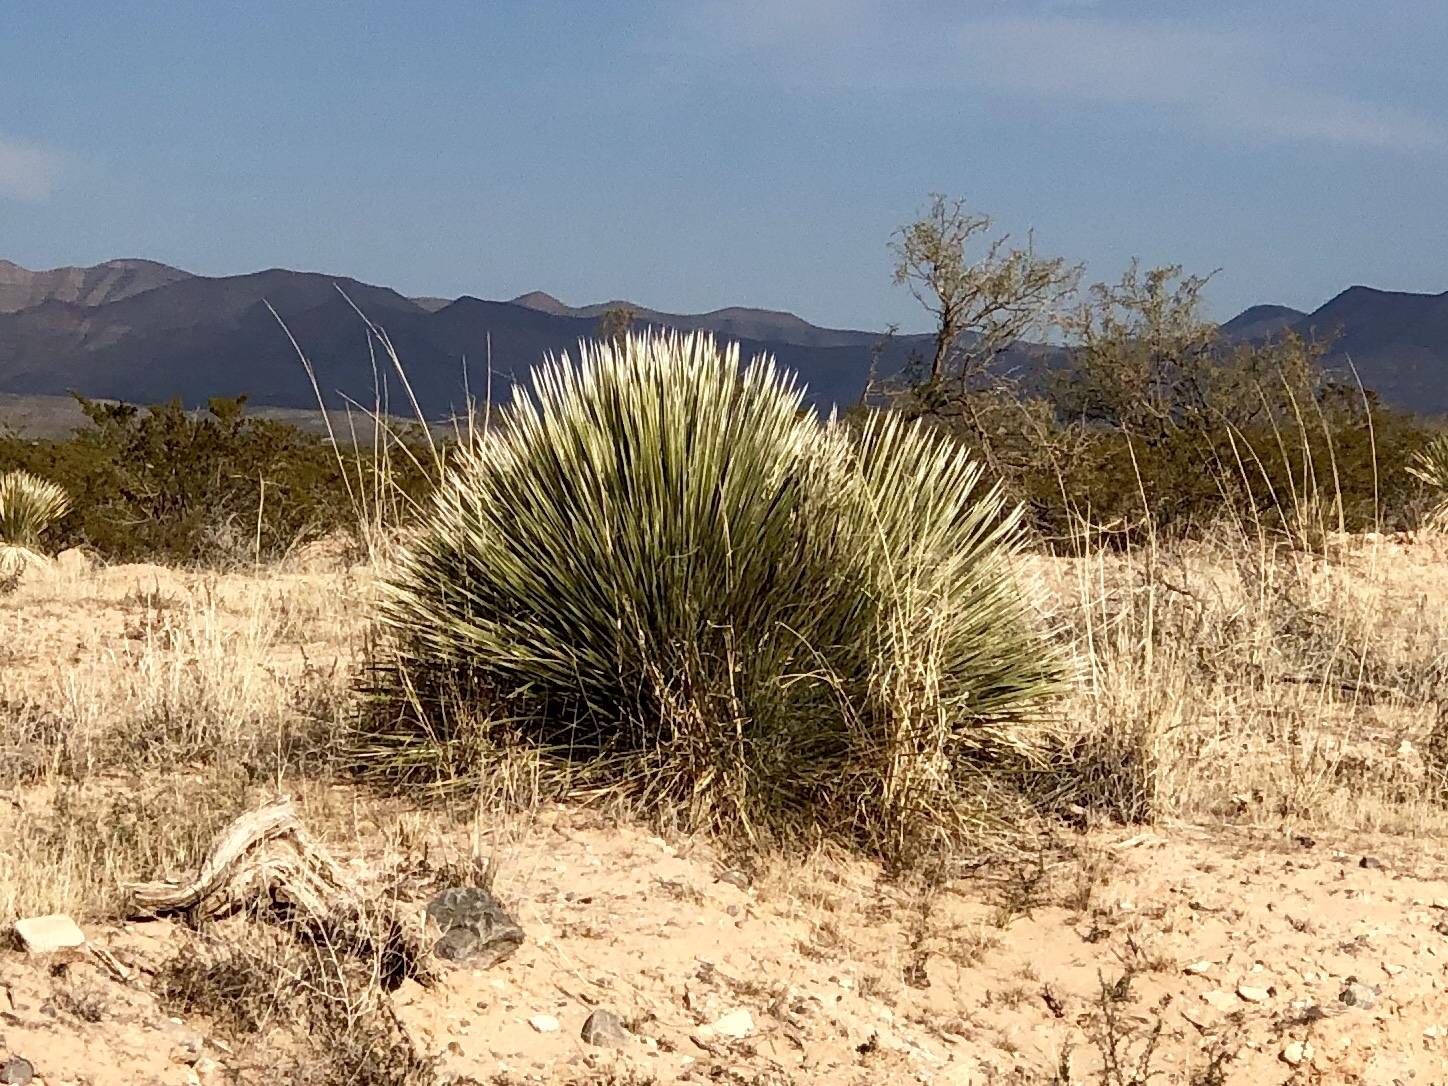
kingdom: Plantae
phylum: Tracheophyta
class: Liliopsida
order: Asparagales
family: Asparagaceae
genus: Yucca
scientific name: Yucca elata
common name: Palmella
